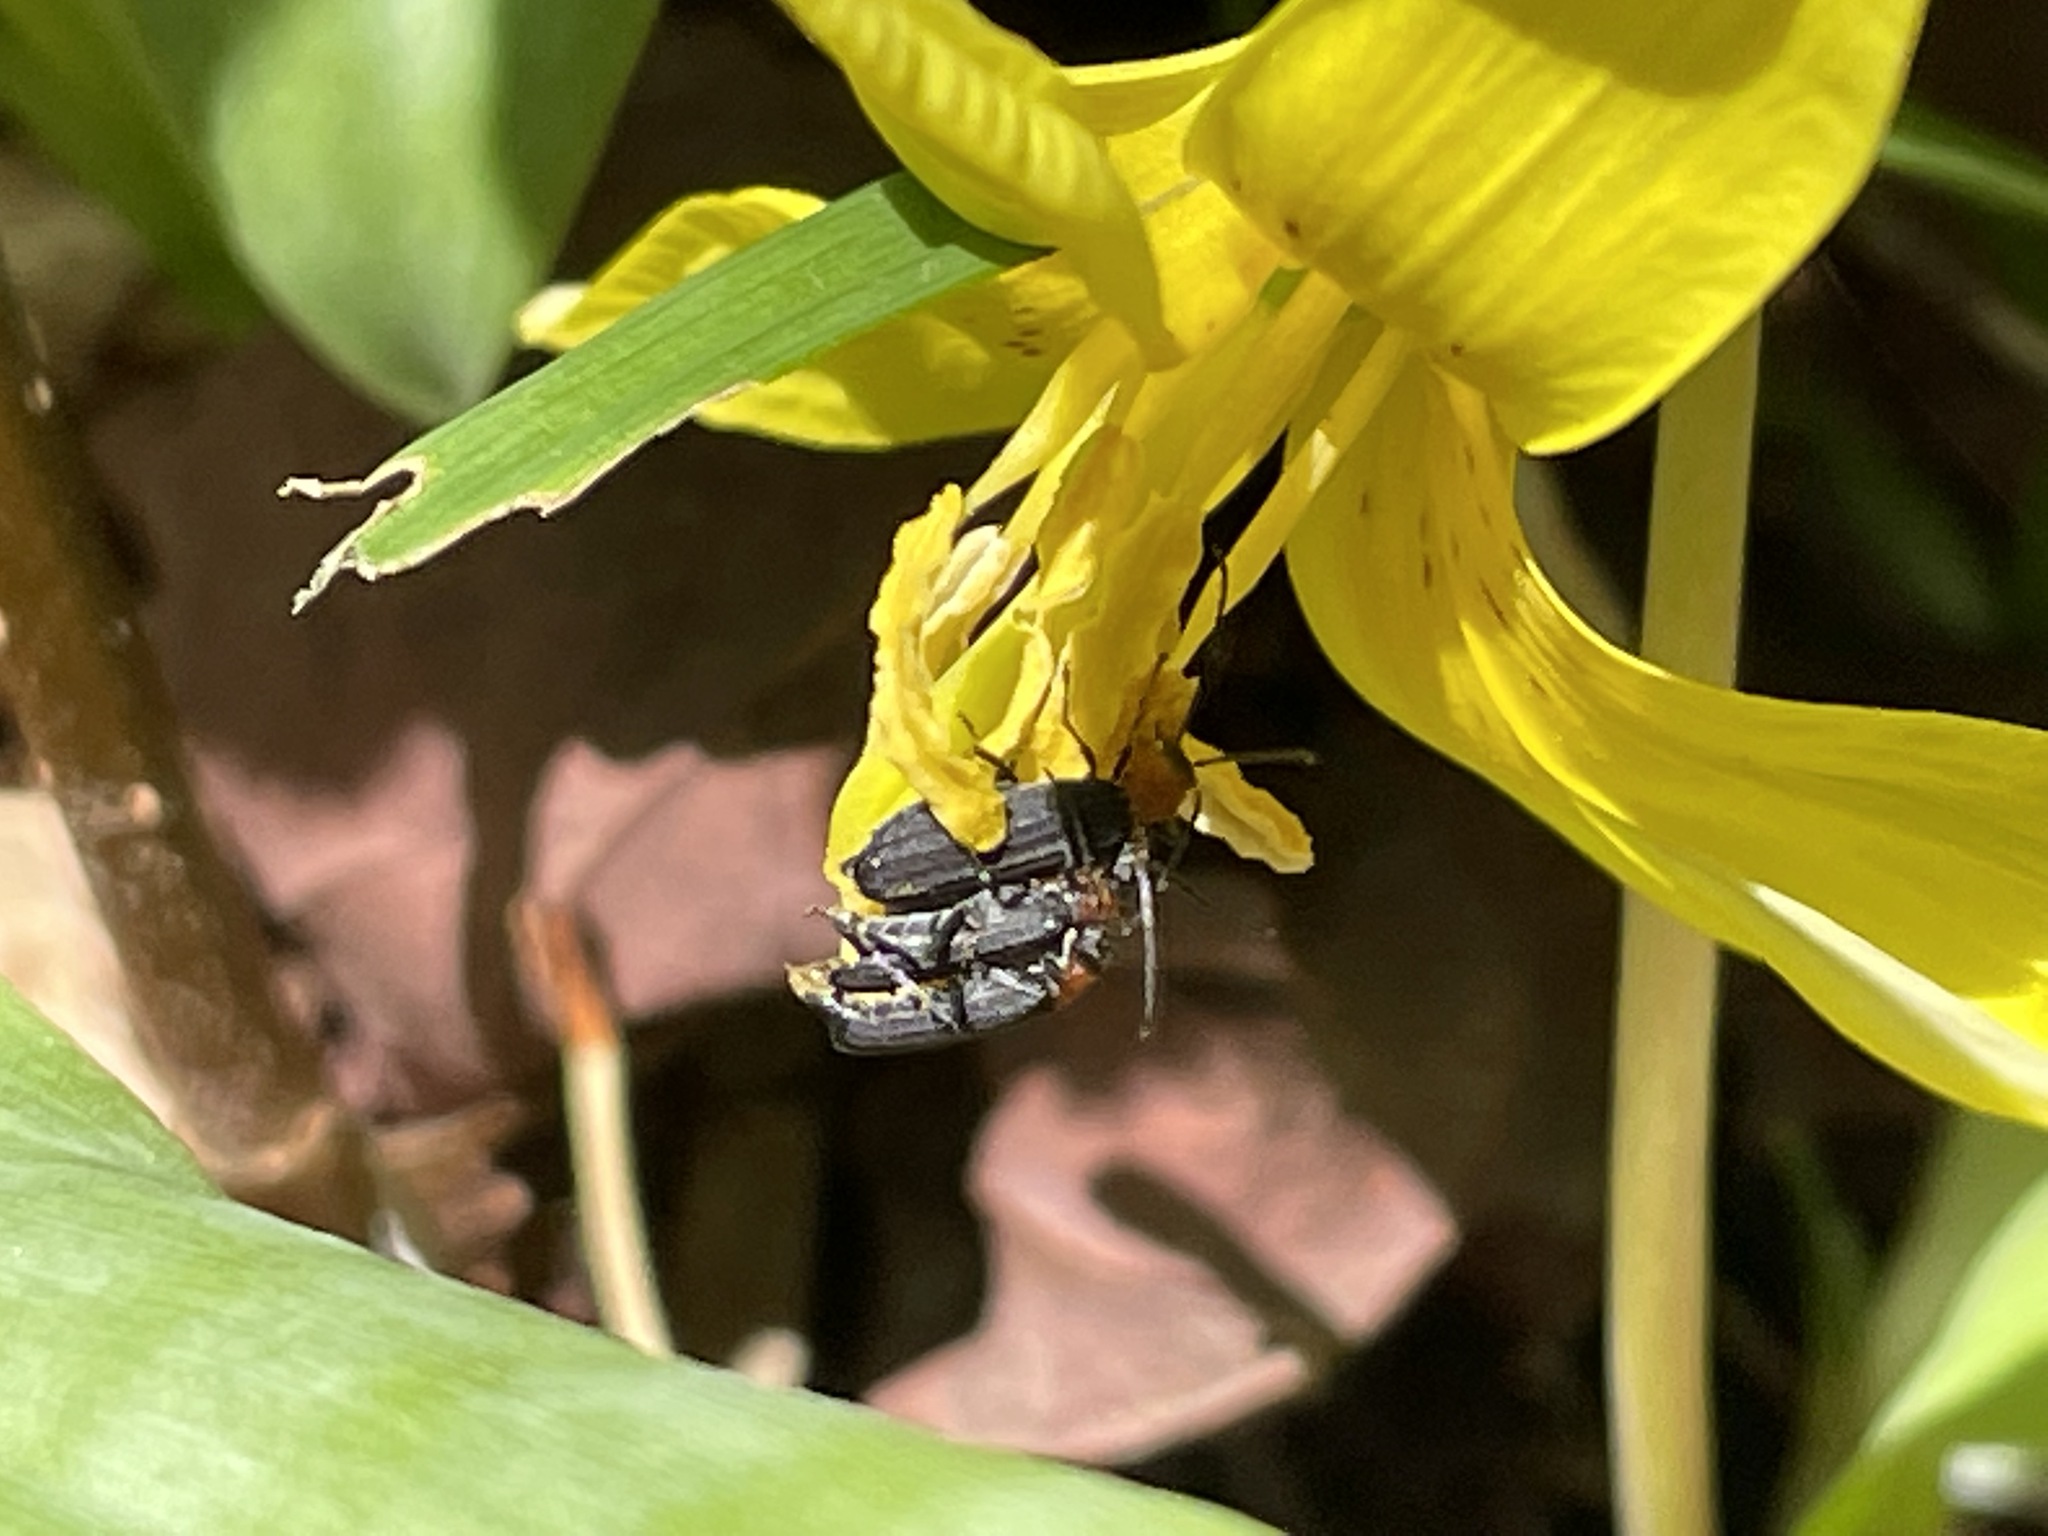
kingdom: Animalia
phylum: Arthropoda
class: Insecta
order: Coleoptera
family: Oedemeridae
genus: Ischnomera
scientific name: Ischnomera
